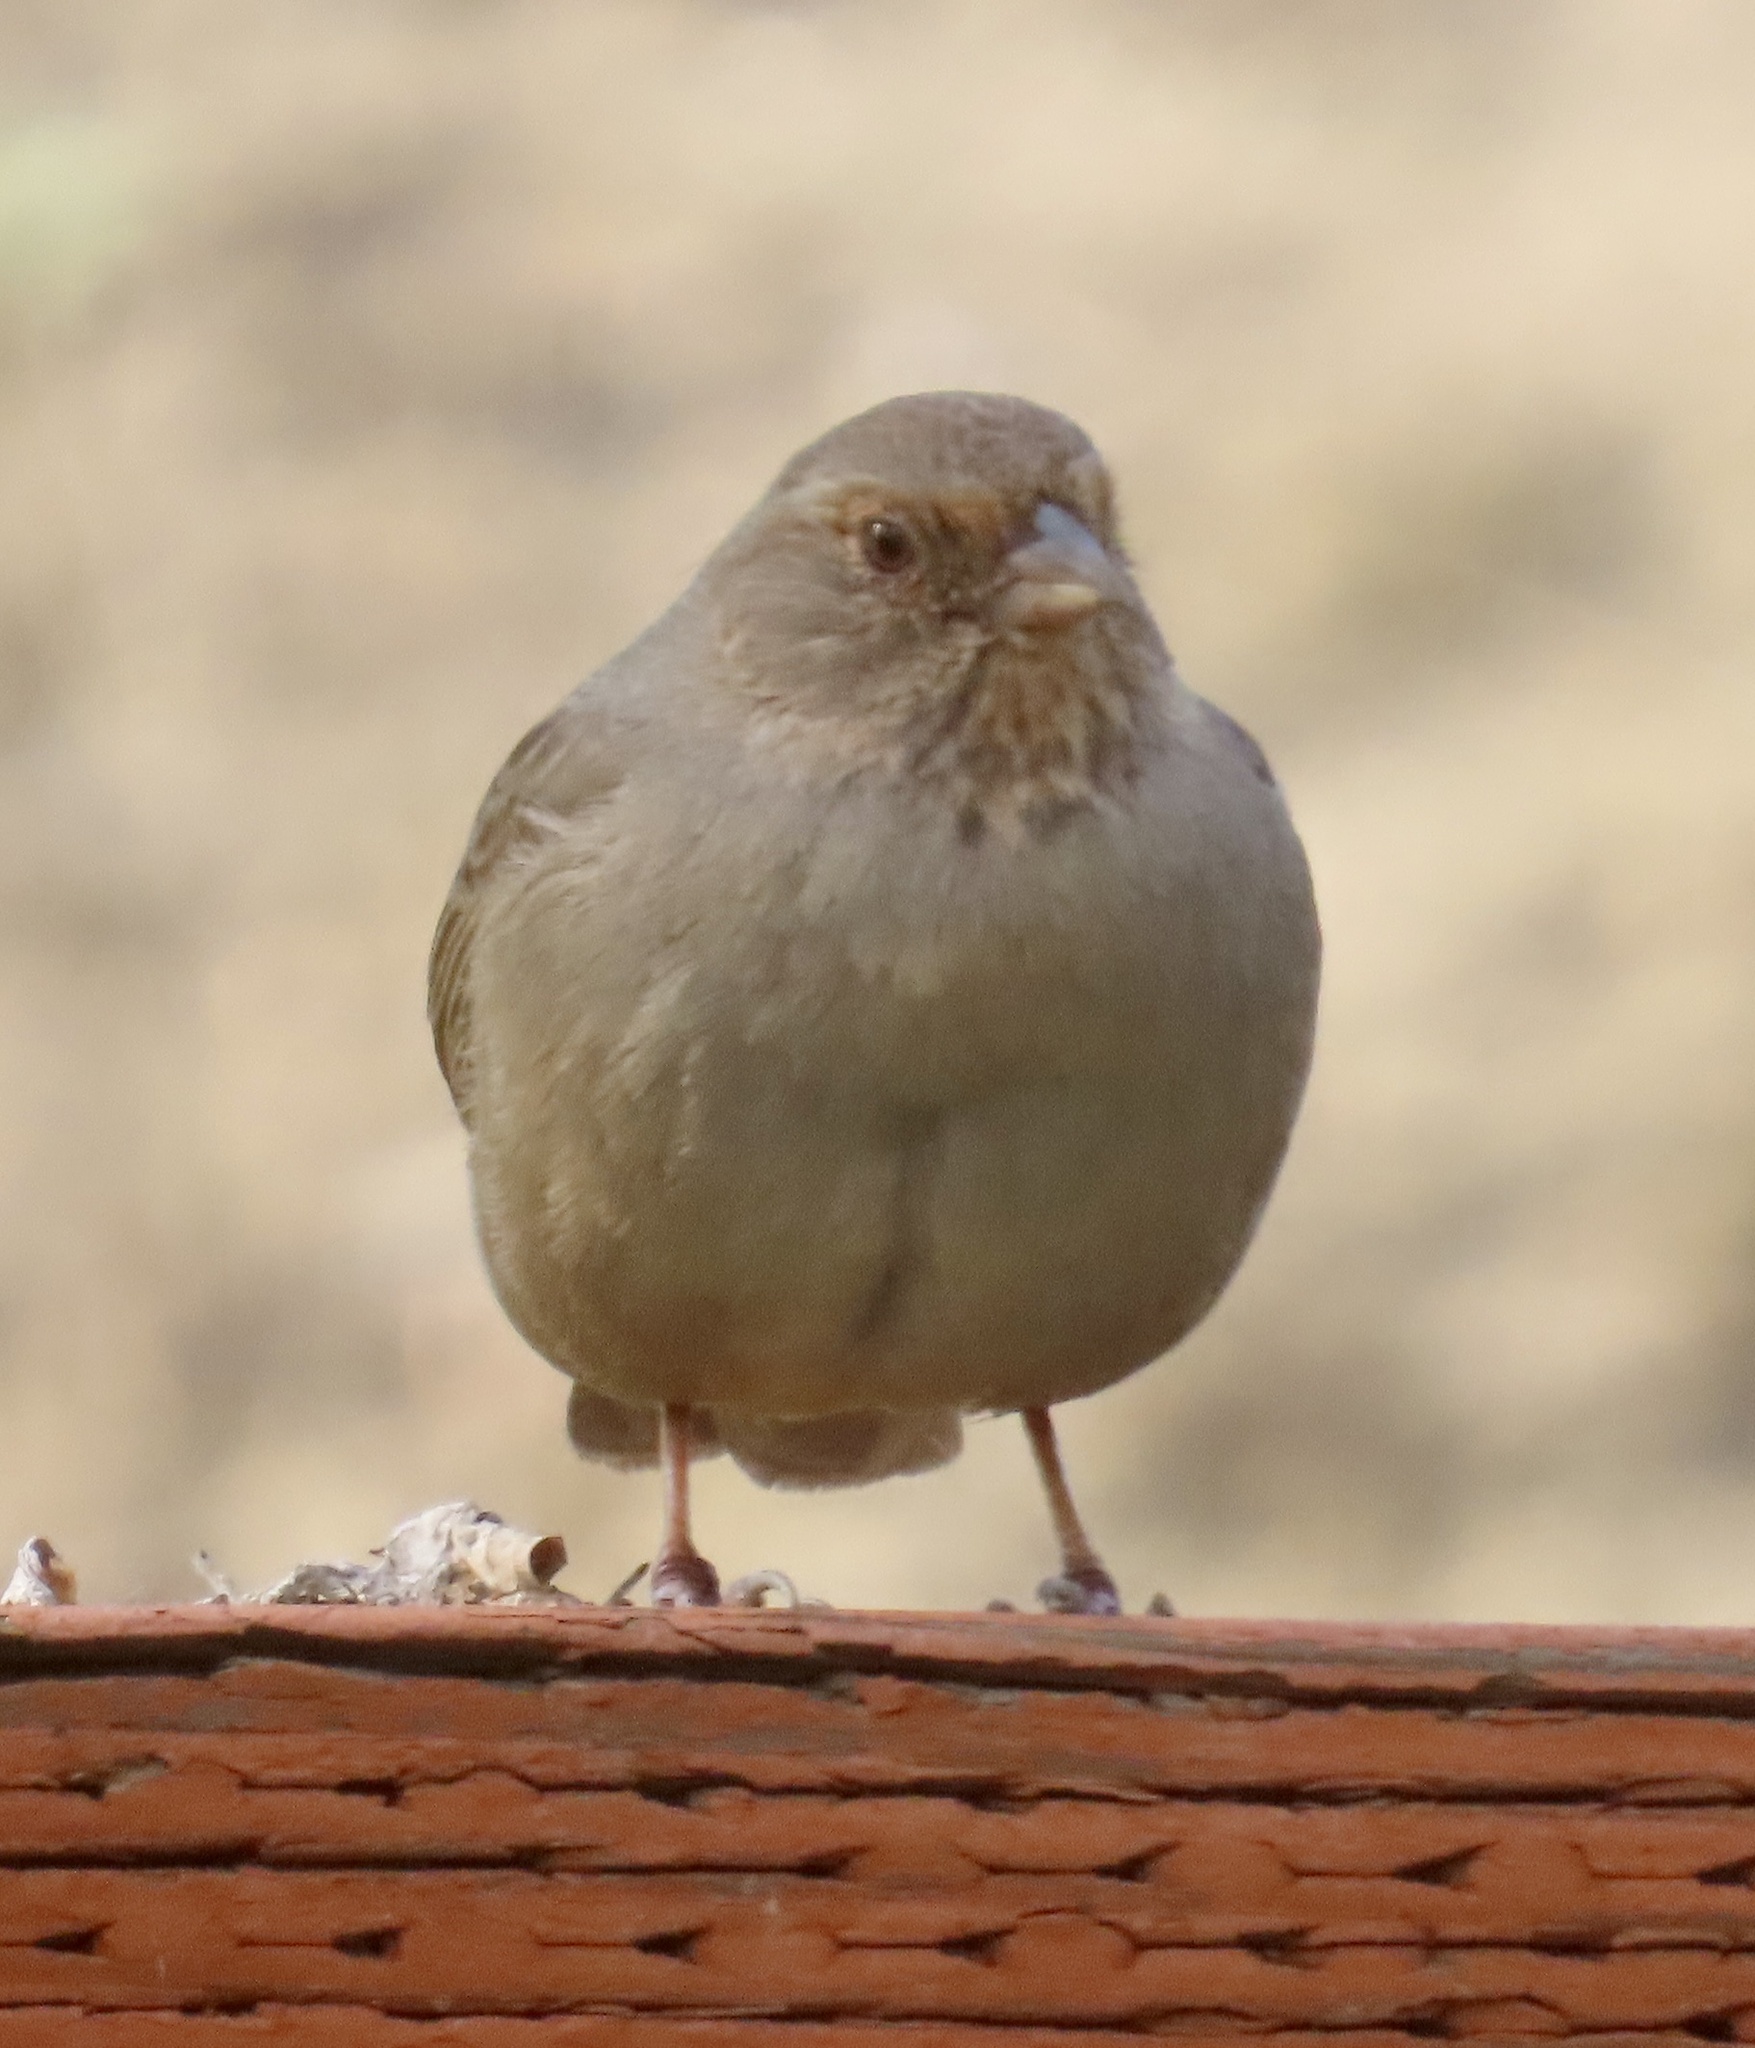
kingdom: Animalia
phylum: Chordata
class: Aves
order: Passeriformes
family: Passerellidae
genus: Melozone
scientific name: Melozone crissalis
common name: California towhee
